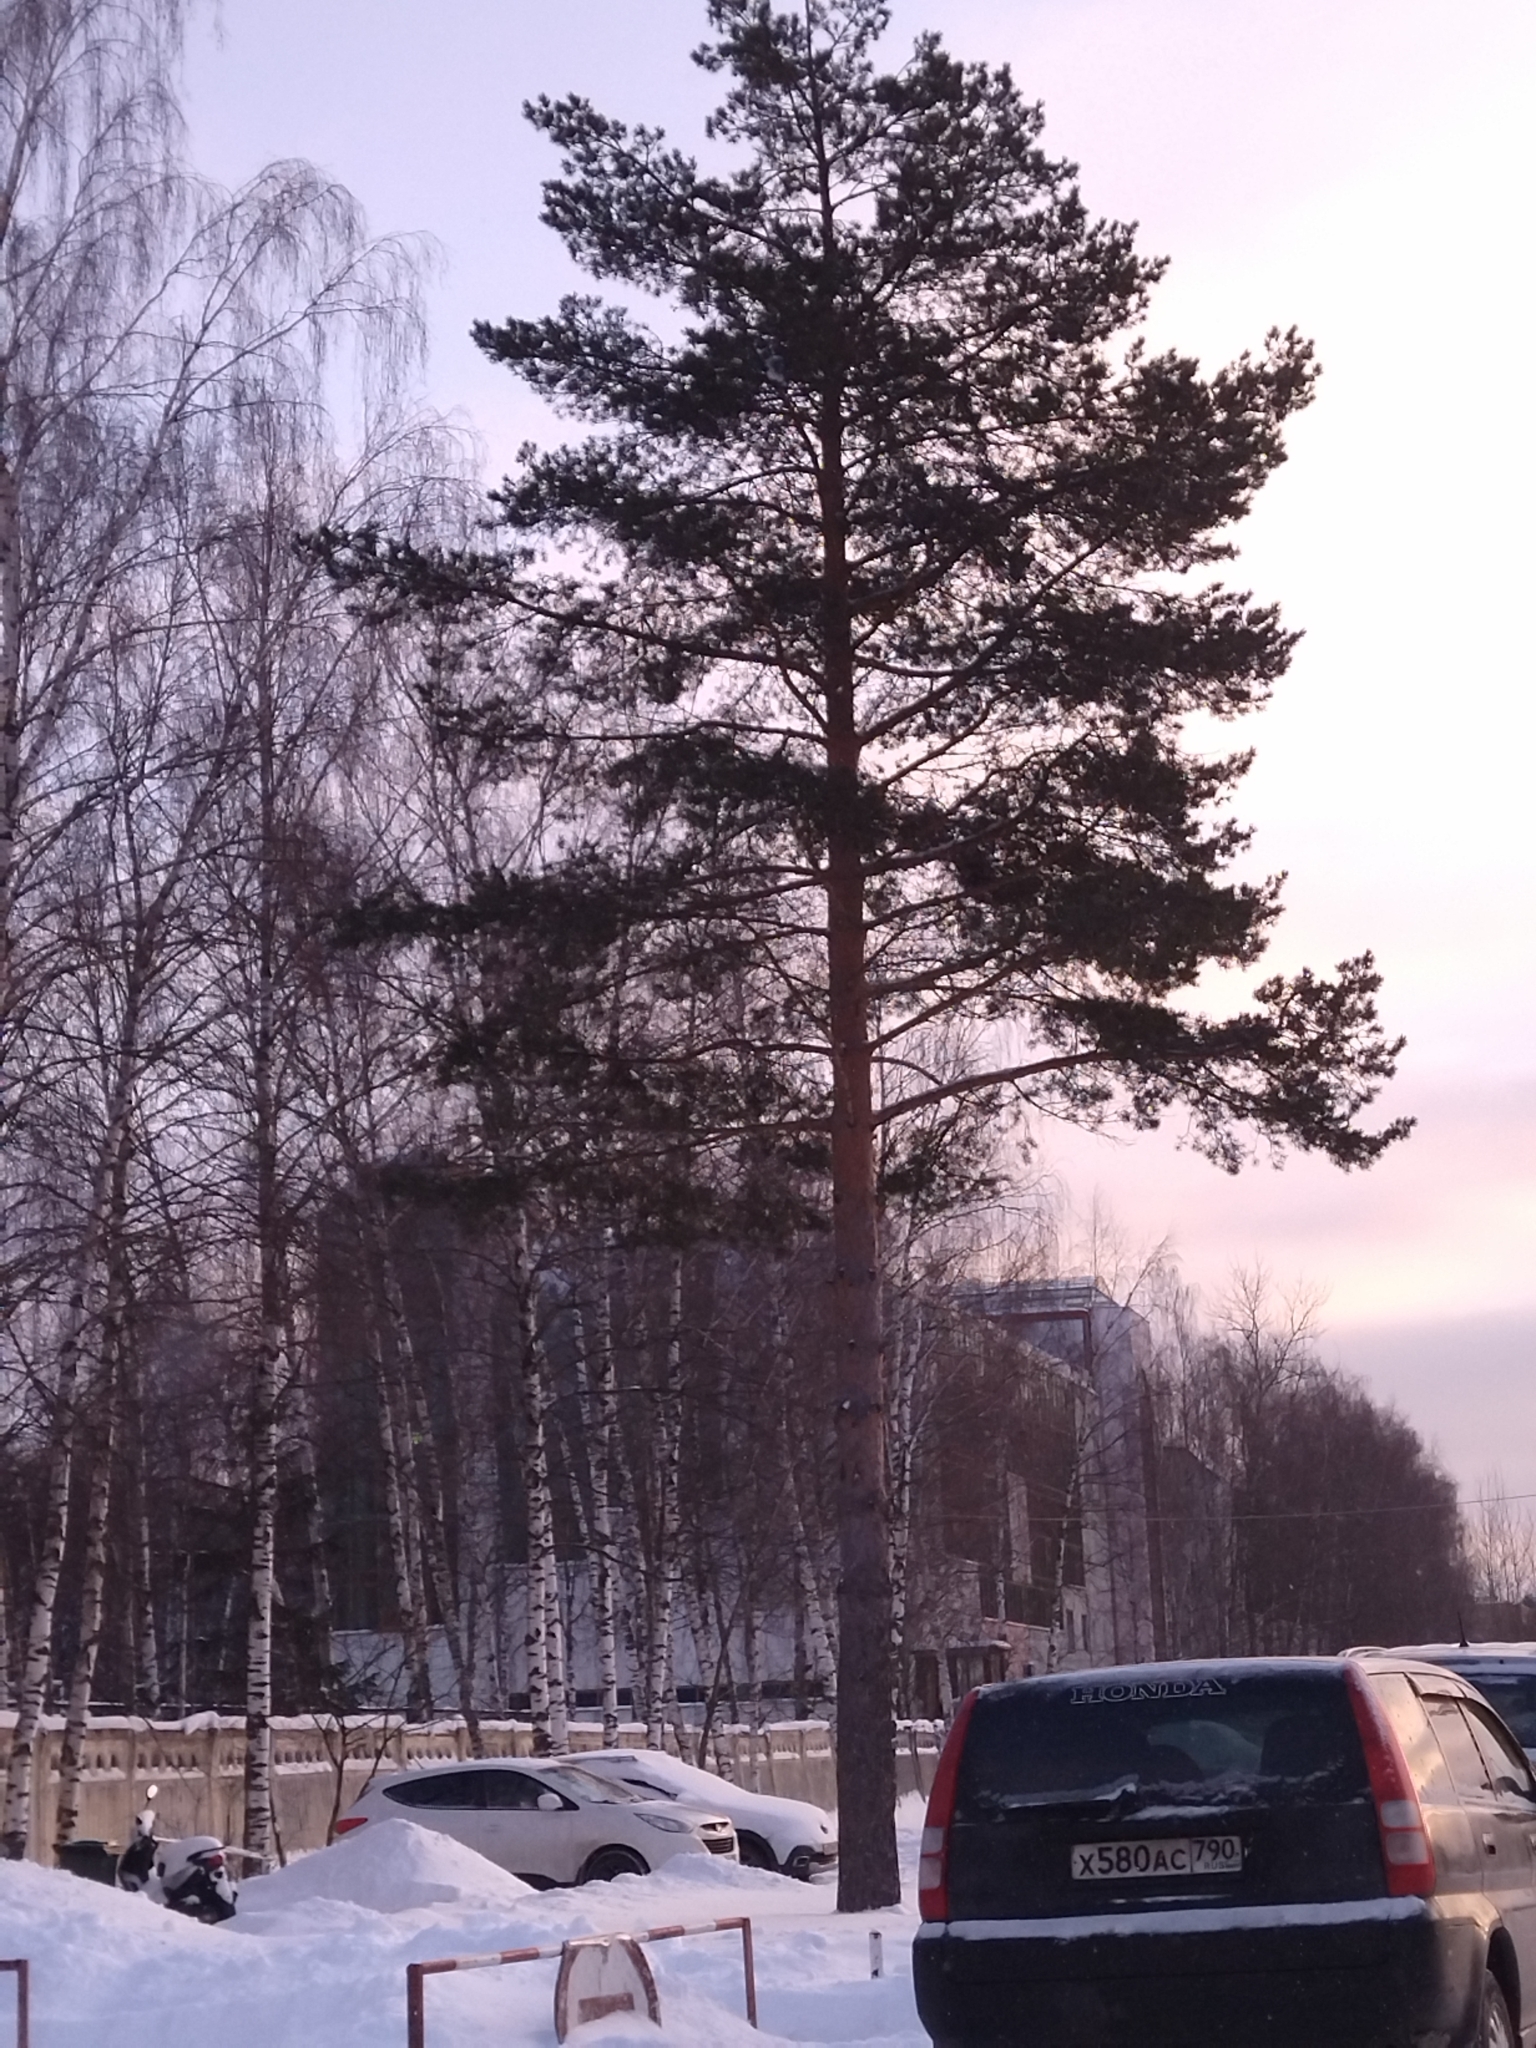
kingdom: Plantae
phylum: Tracheophyta
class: Pinopsida
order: Pinales
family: Pinaceae
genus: Pinus
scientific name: Pinus sylvestris
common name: Scots pine
